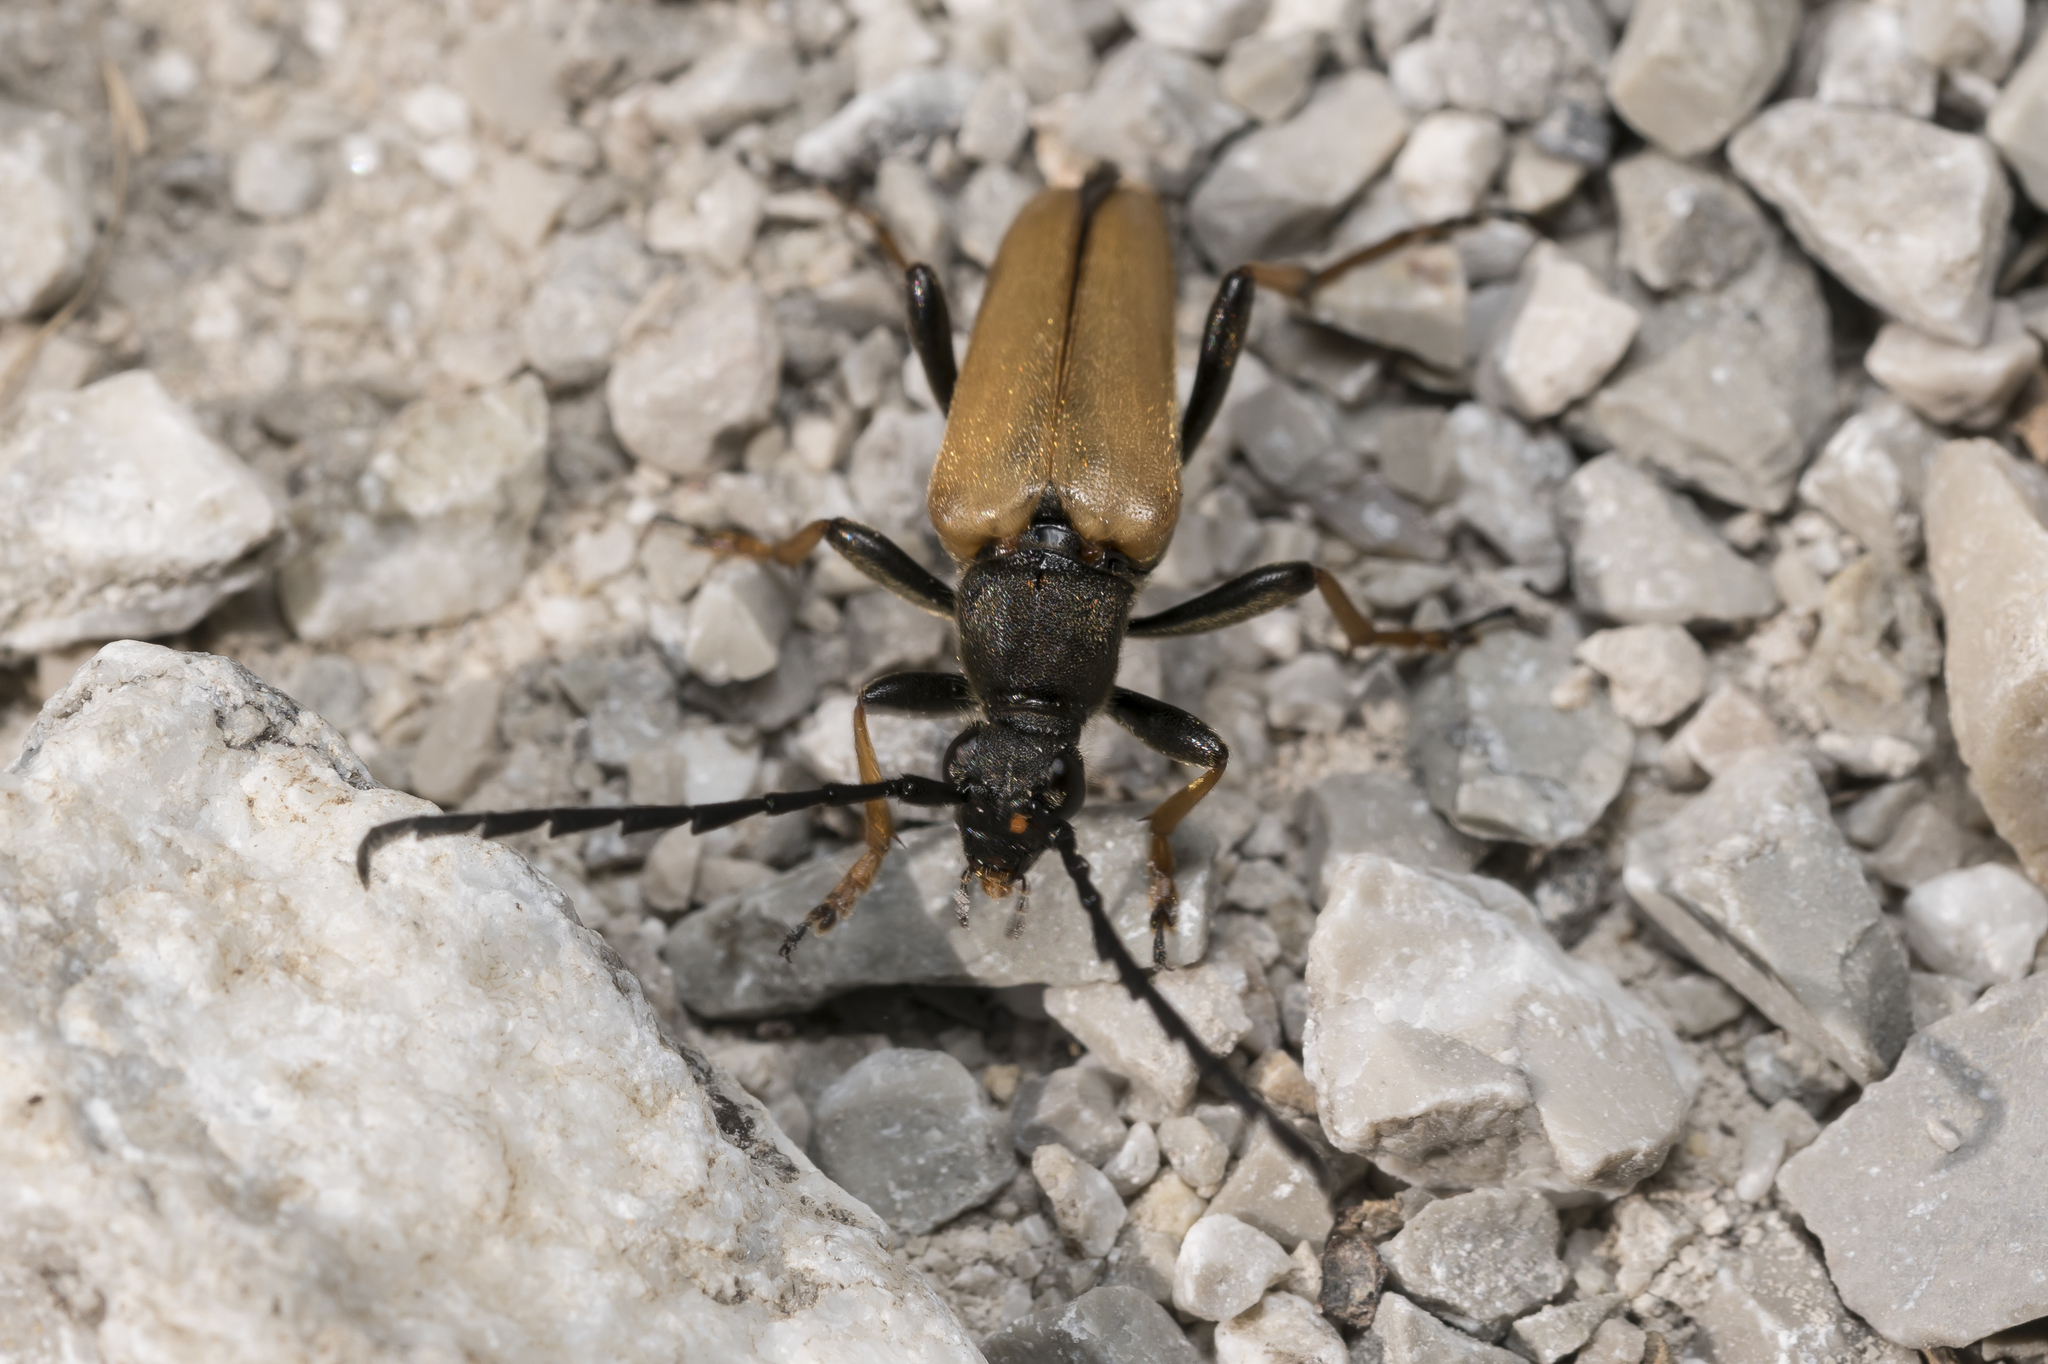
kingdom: Animalia
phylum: Arthropoda
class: Insecta
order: Coleoptera
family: Cerambycidae
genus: Stictoleptura
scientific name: Stictoleptura rubra
